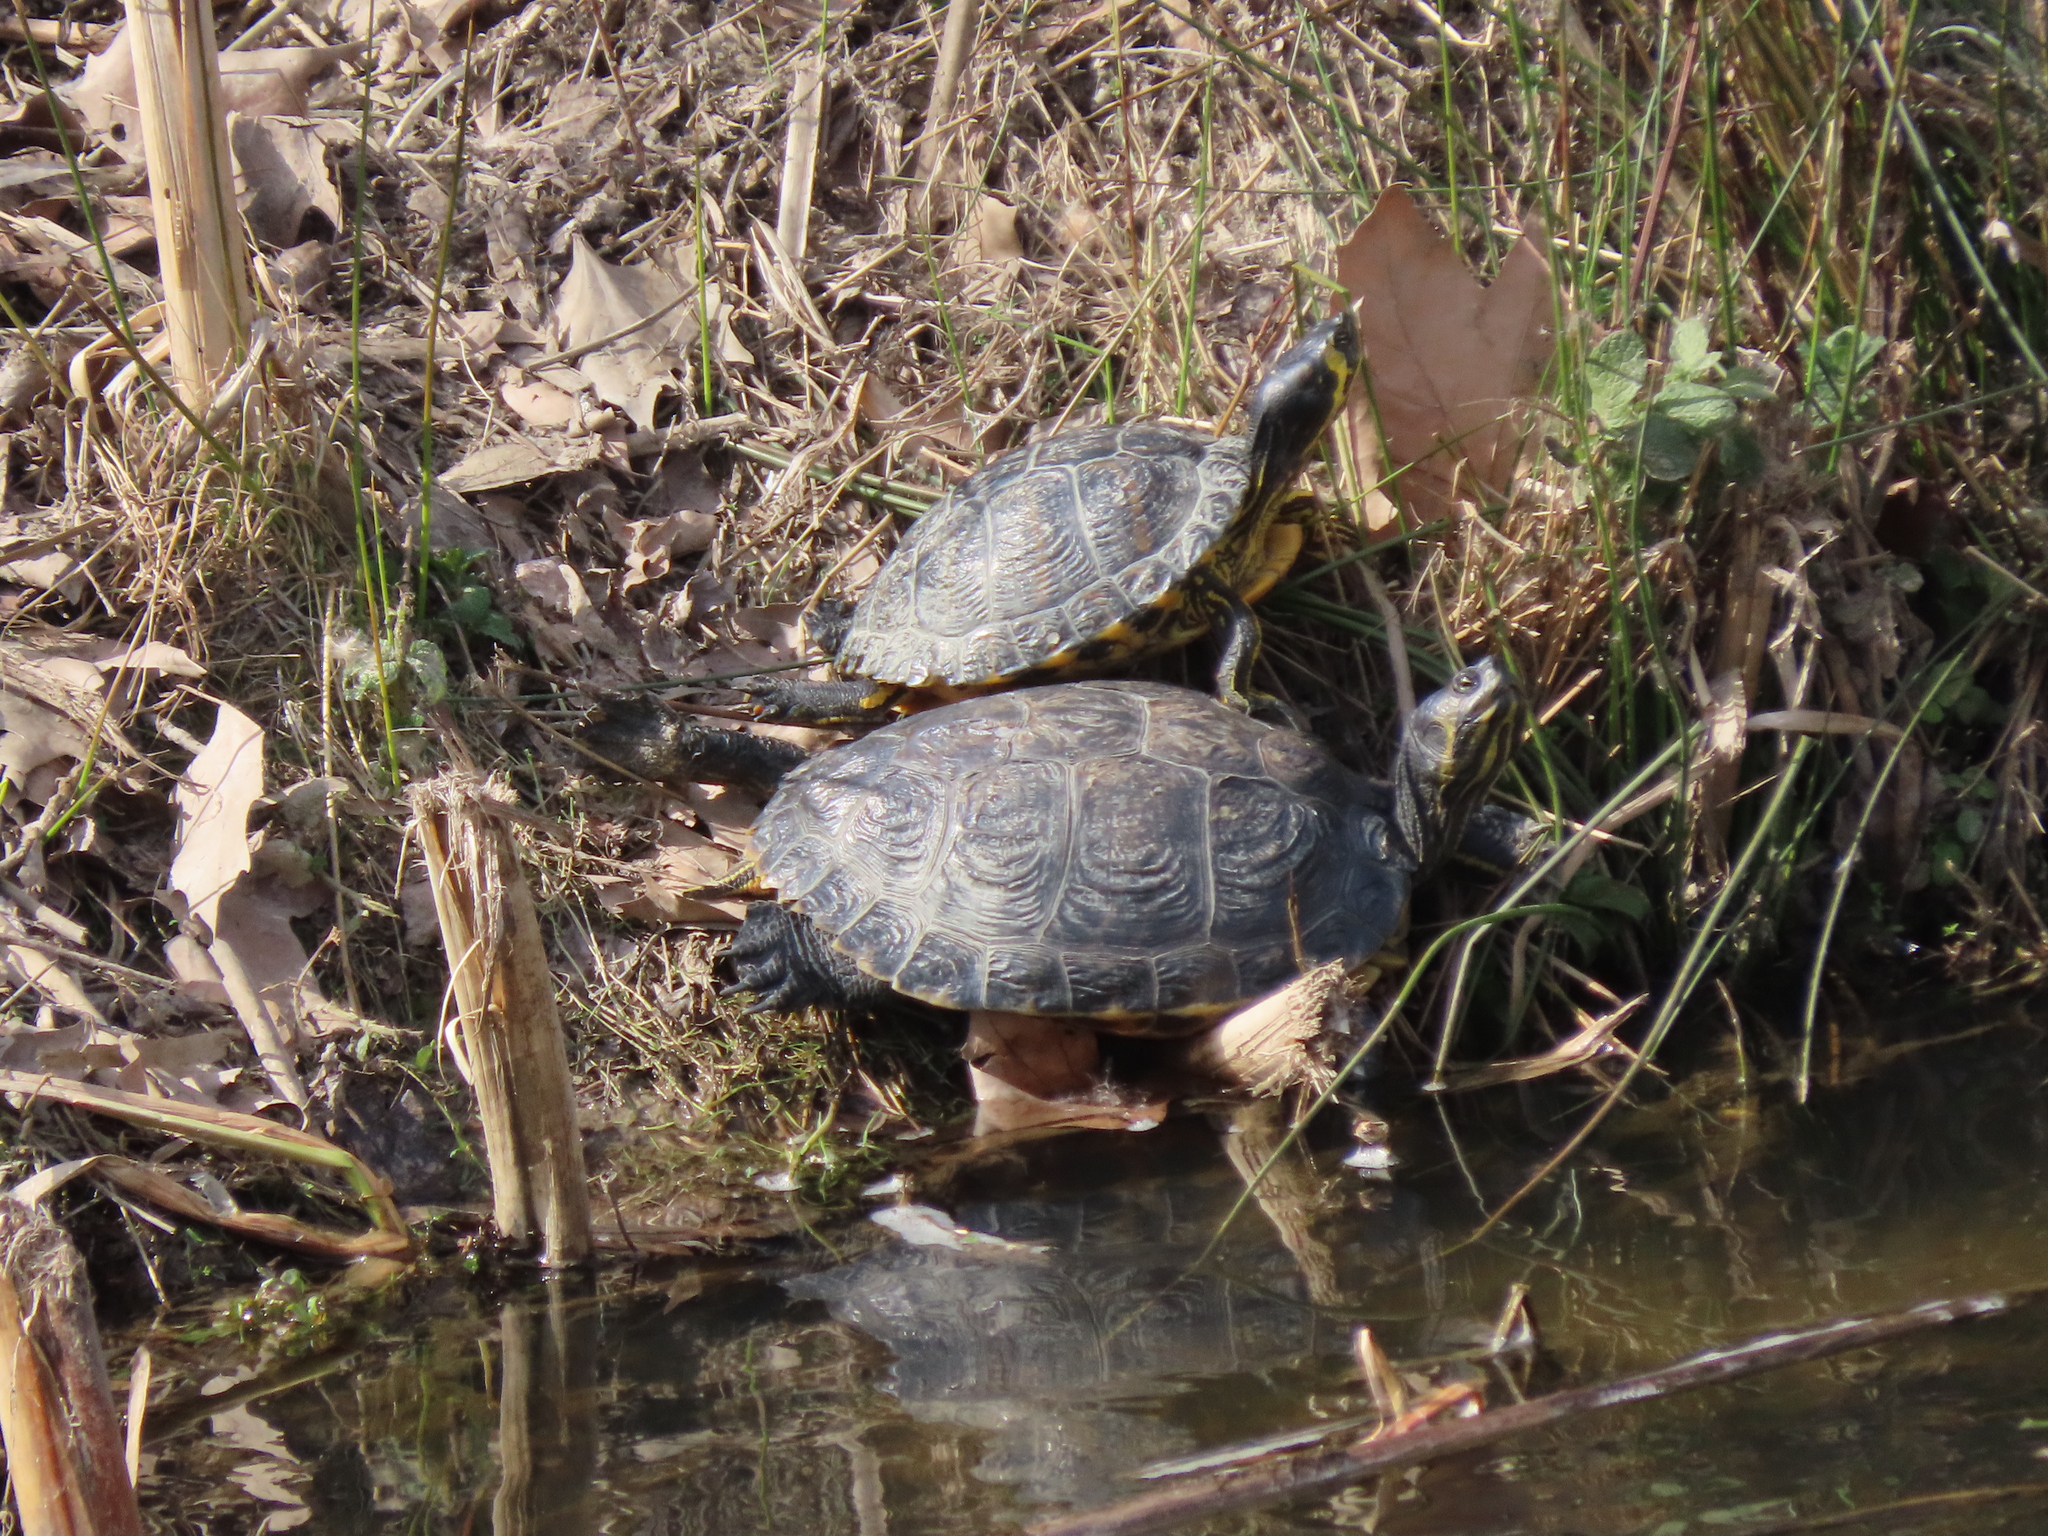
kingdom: Animalia
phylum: Chordata
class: Testudines
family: Emydidae
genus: Trachemys
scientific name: Trachemys scripta
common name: Slider
